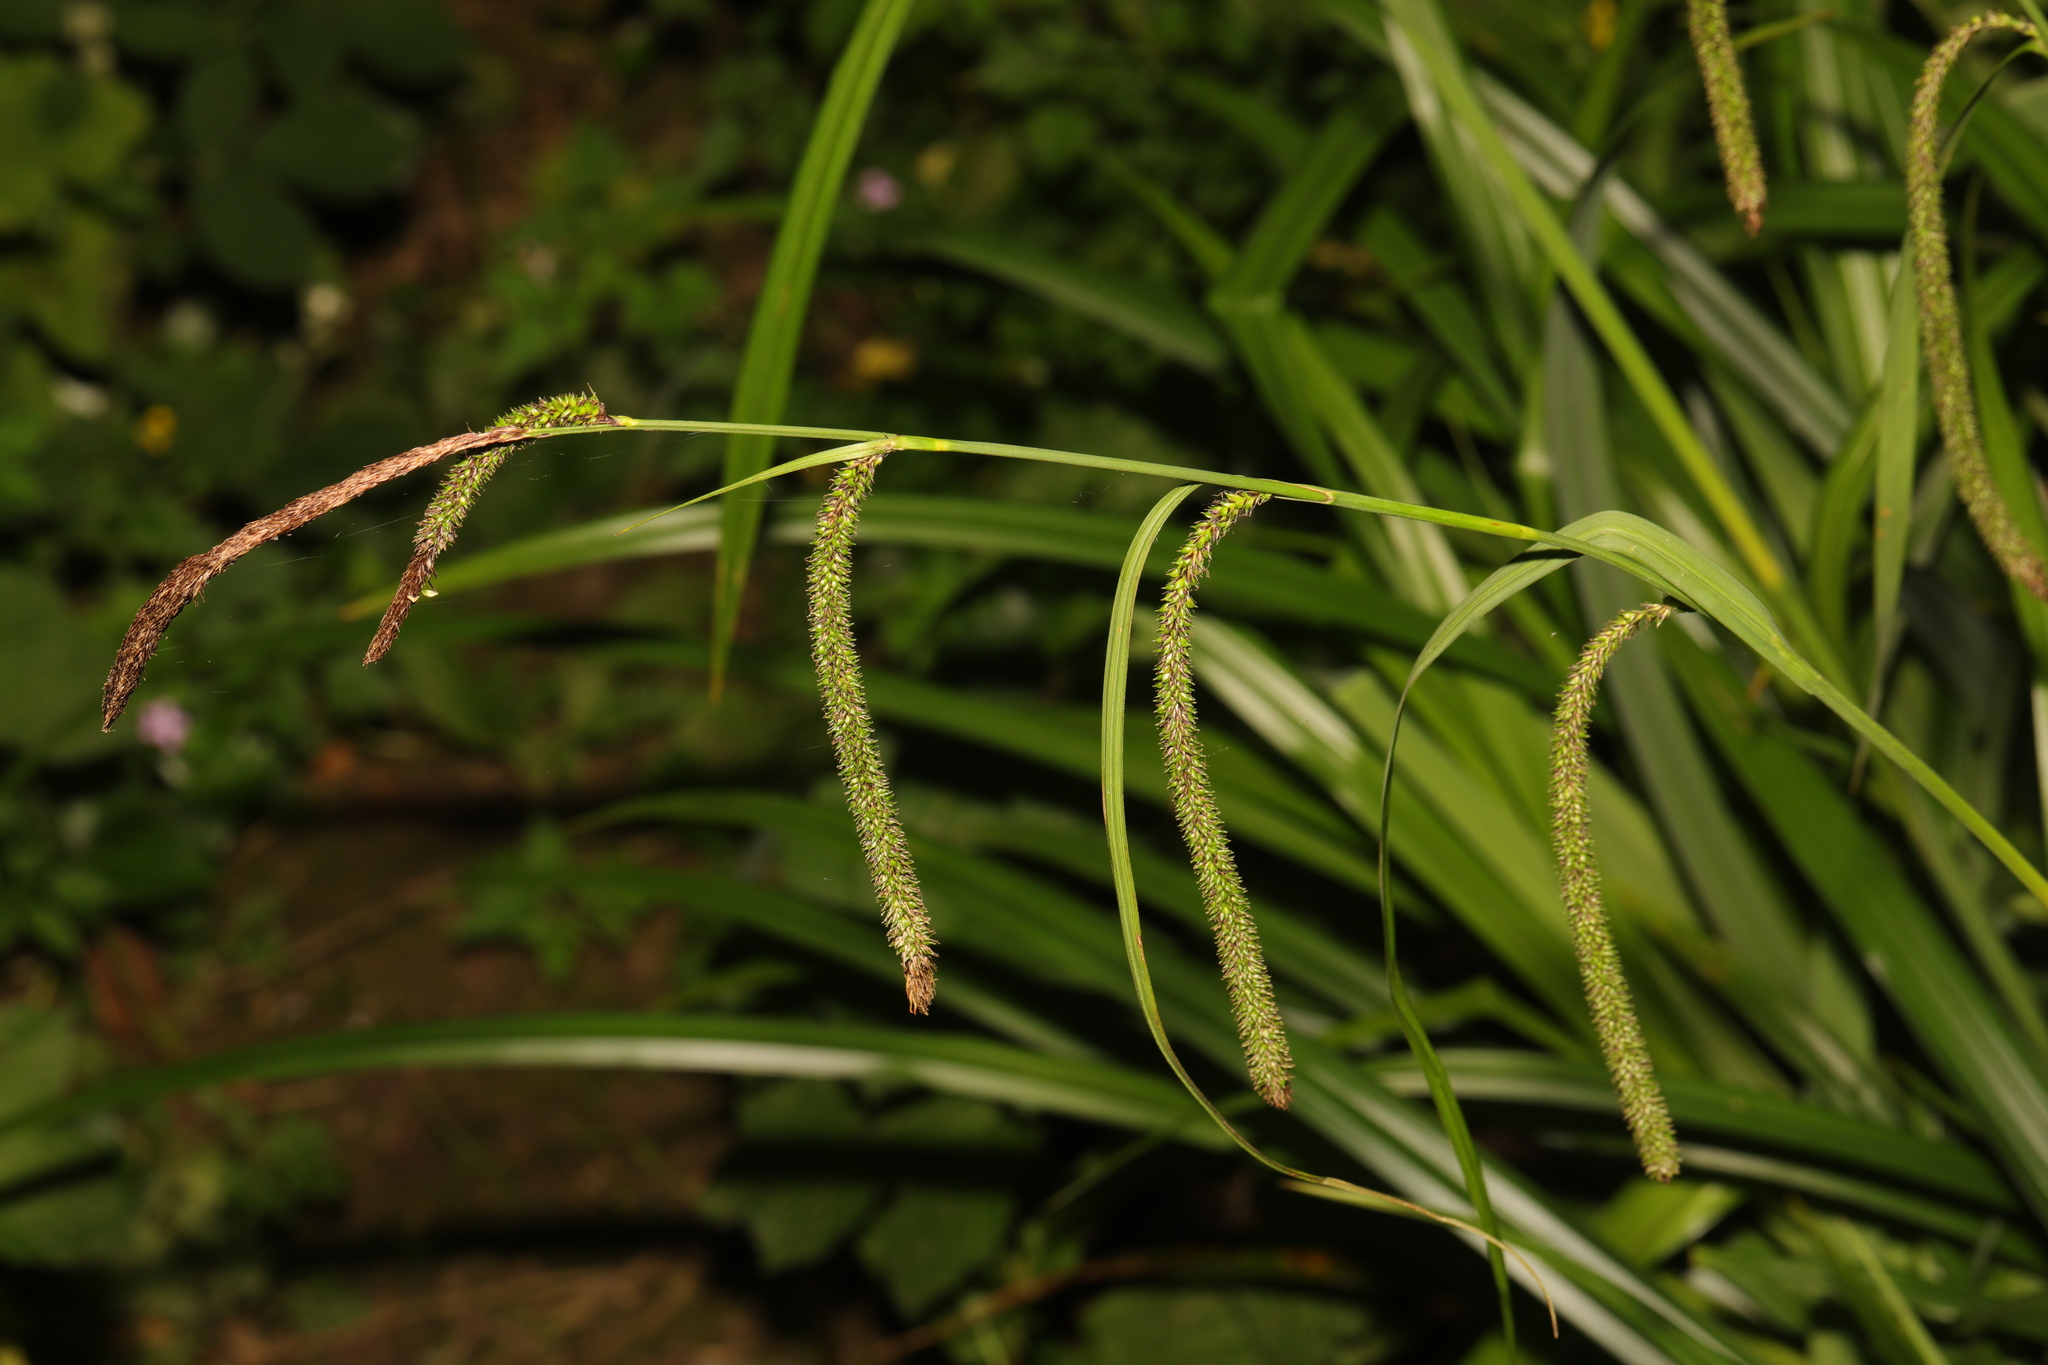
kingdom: Plantae
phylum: Tracheophyta
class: Liliopsida
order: Poales
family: Cyperaceae
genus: Carex
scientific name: Carex pendula
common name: Pendulous sedge
